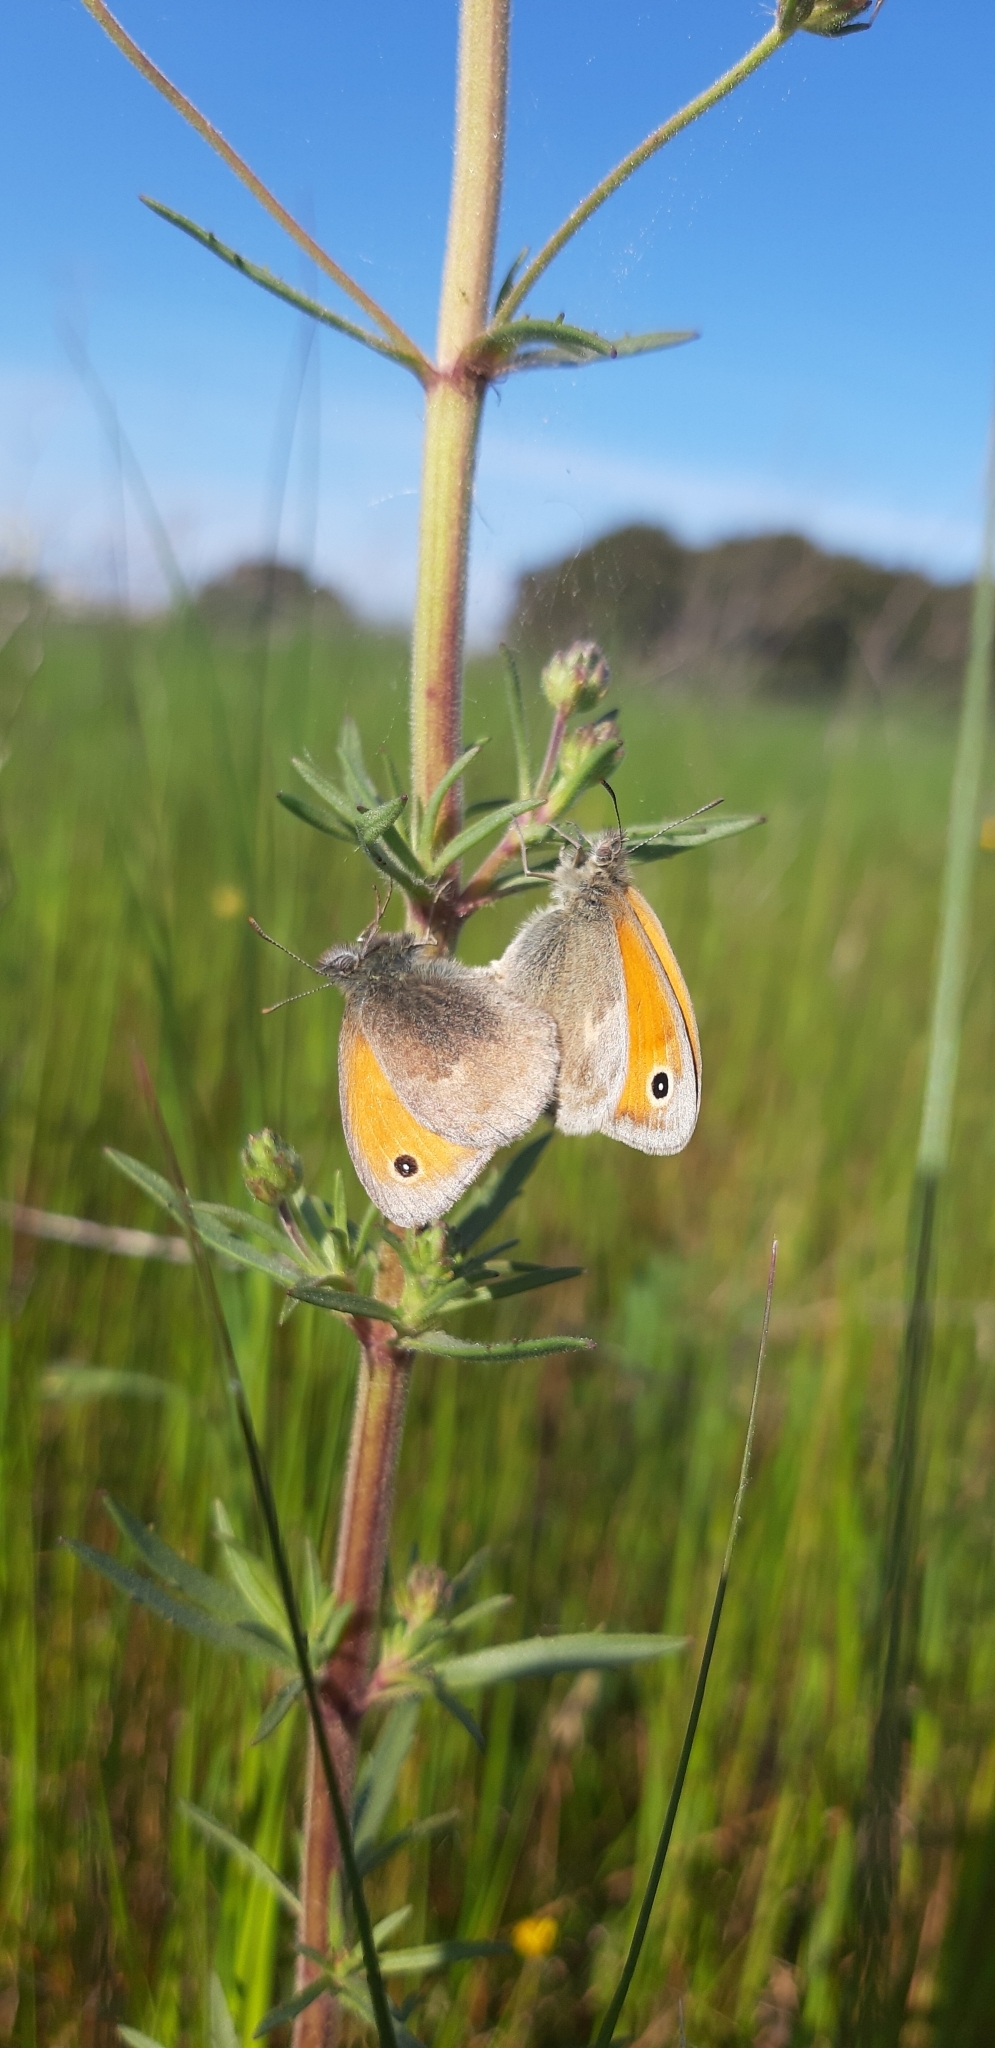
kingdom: Animalia
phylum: Arthropoda
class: Insecta
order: Lepidoptera
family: Nymphalidae
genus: Coenonympha
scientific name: Coenonympha pamphilus
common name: Small heath
